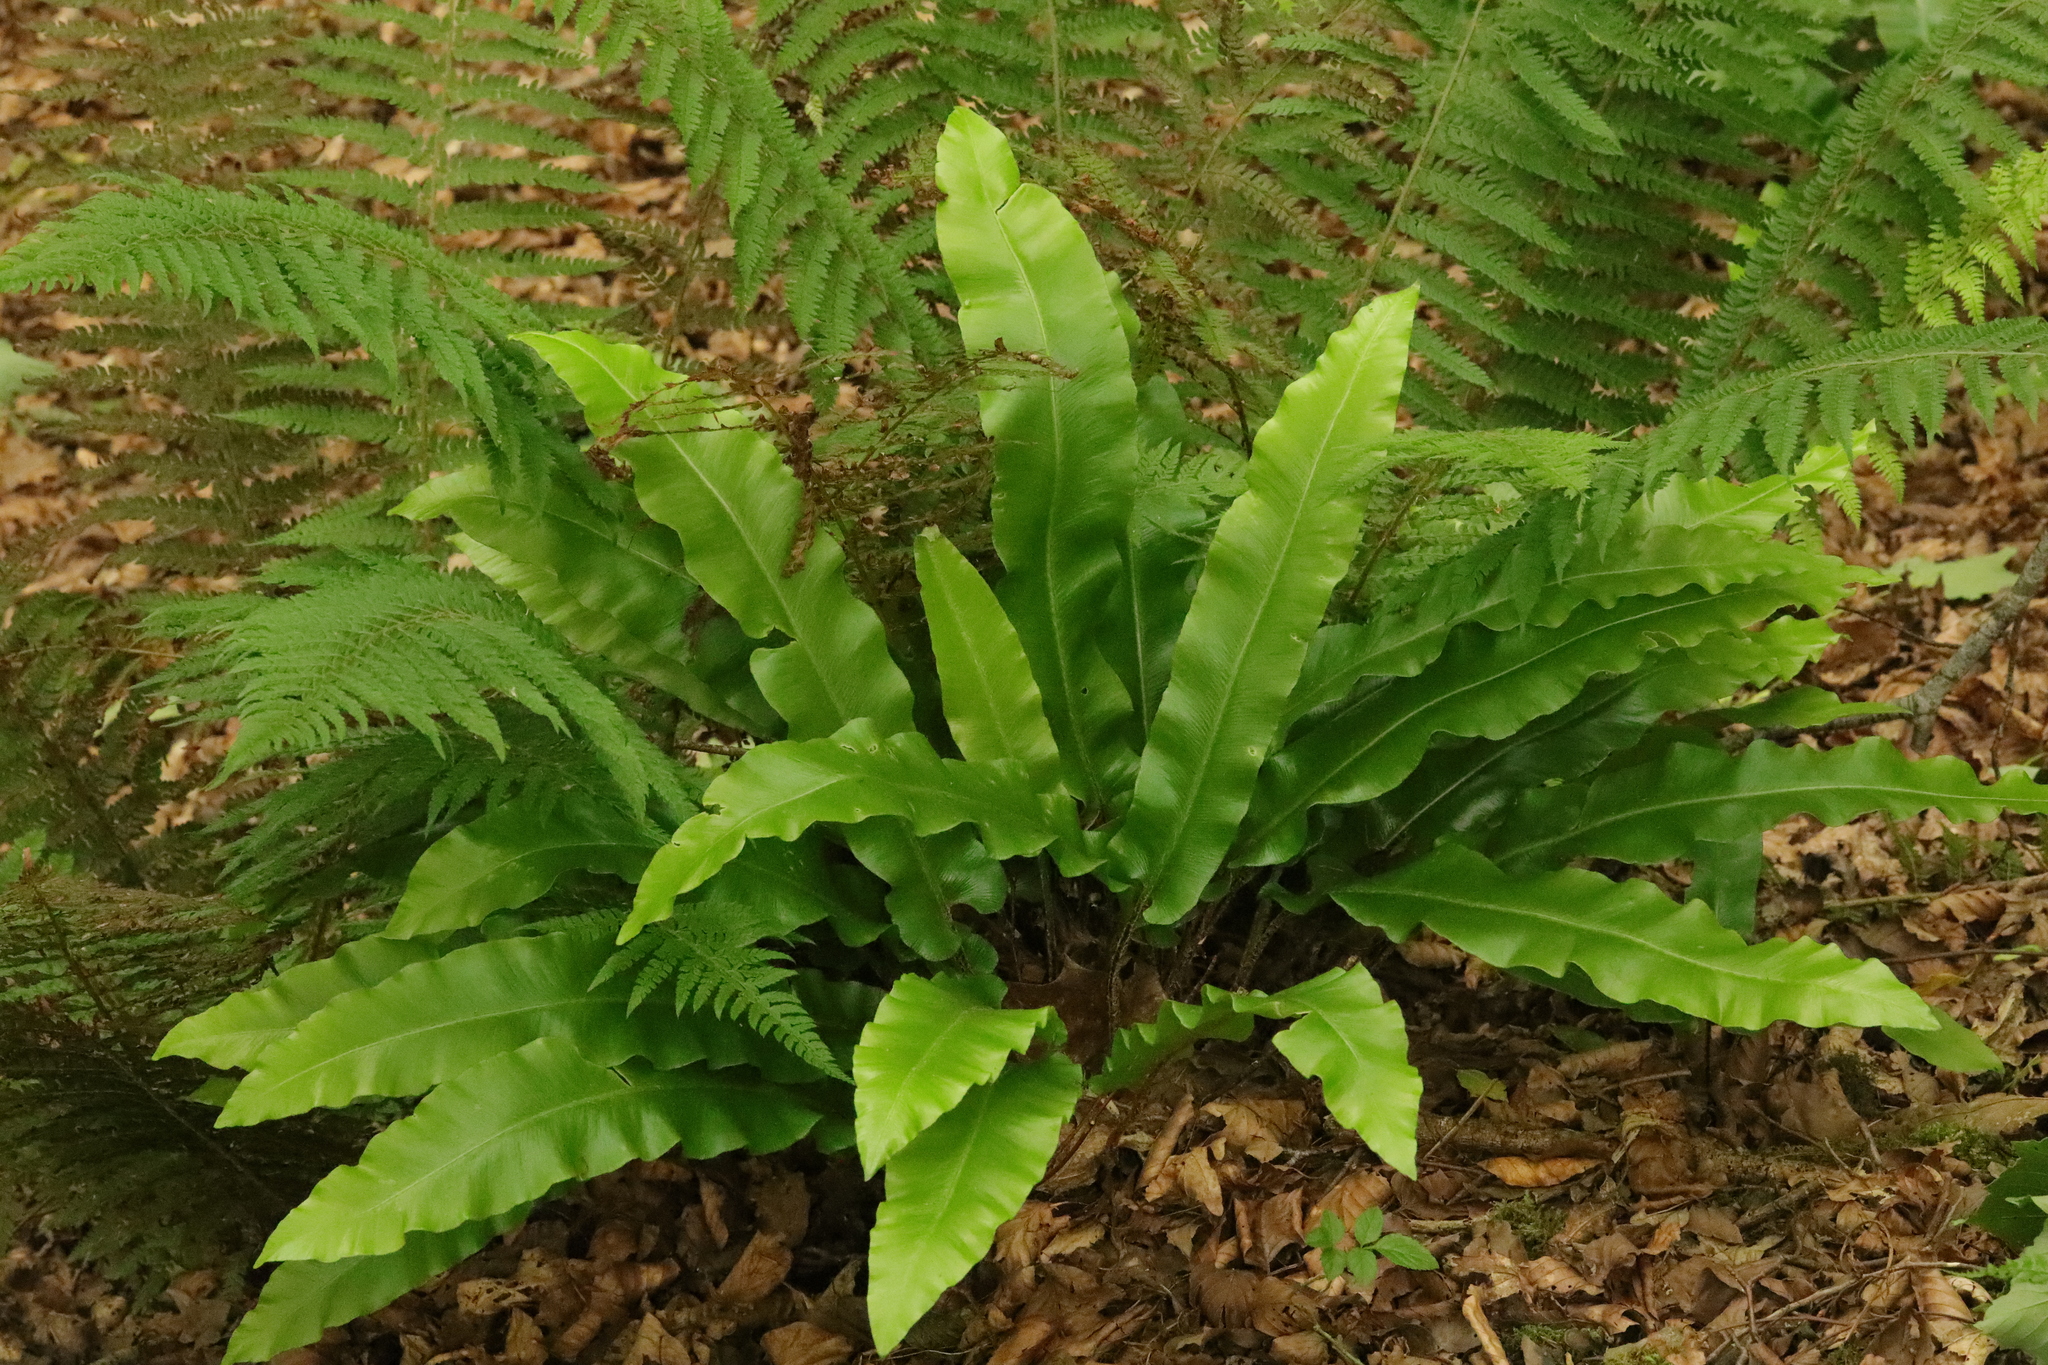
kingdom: Plantae
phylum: Tracheophyta
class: Polypodiopsida
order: Polypodiales
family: Aspleniaceae
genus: Asplenium
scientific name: Asplenium scolopendrium
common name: Hart's-tongue fern
